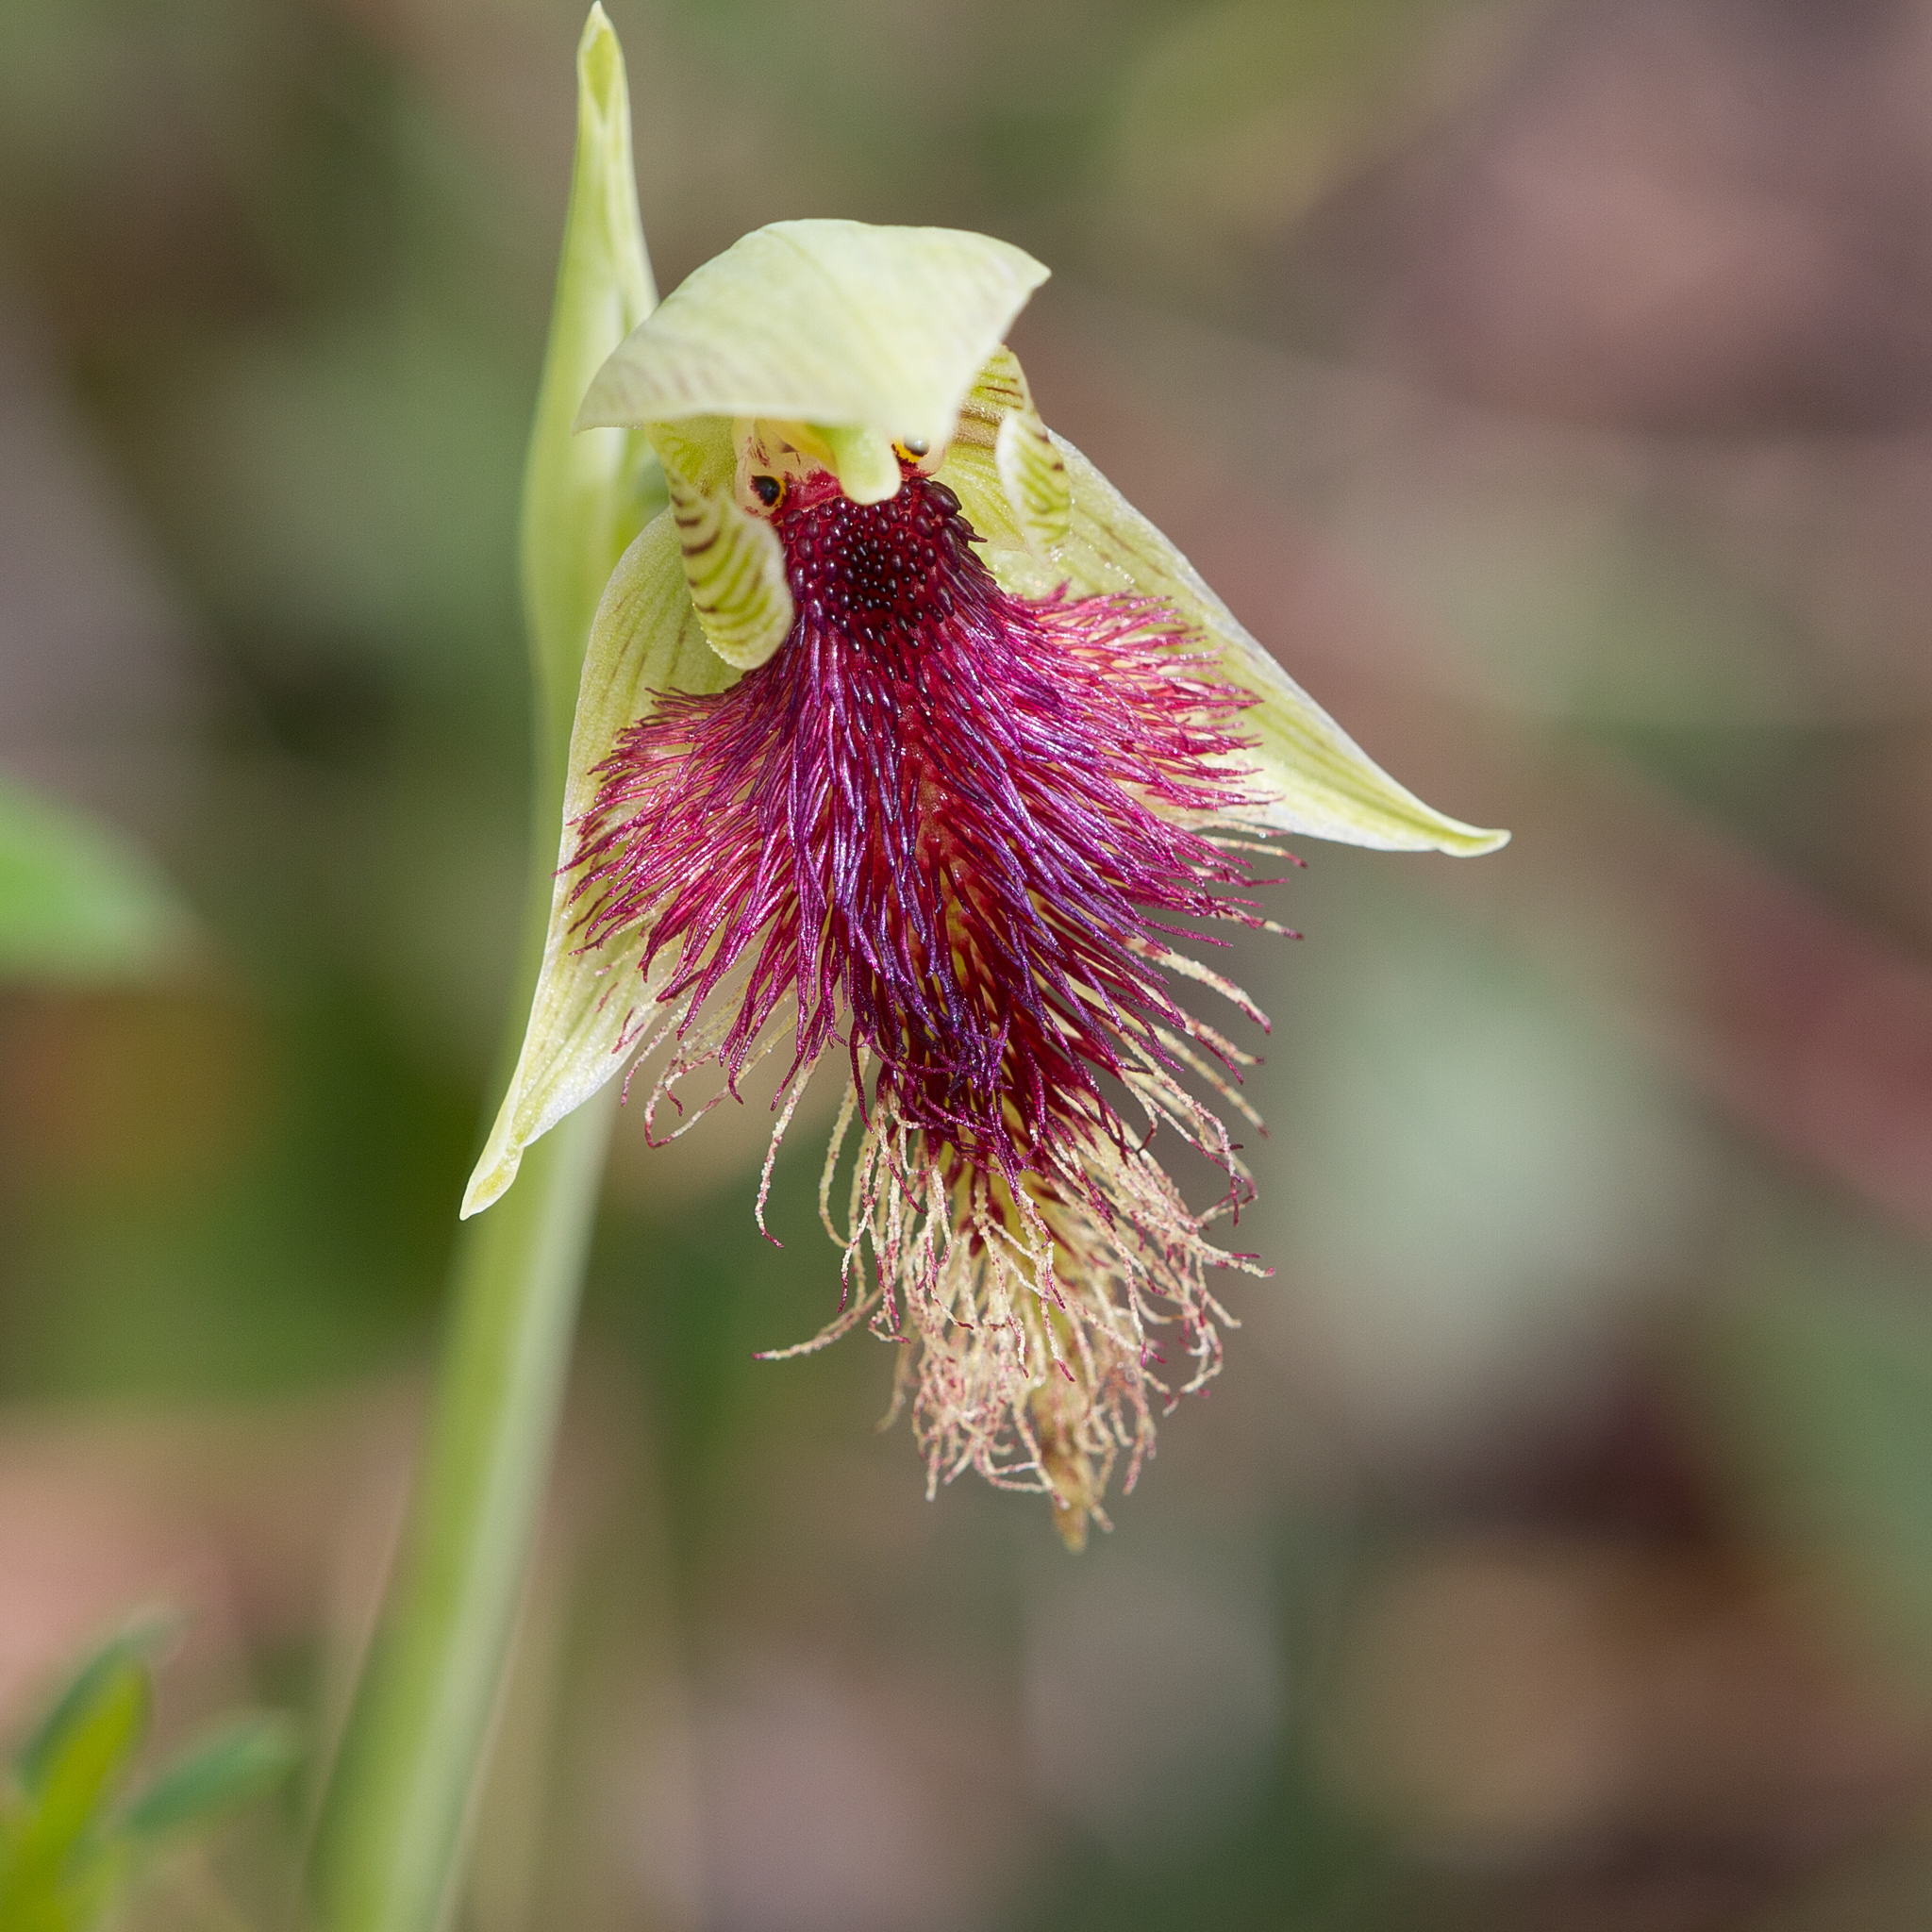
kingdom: Plantae
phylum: Tracheophyta
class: Liliopsida
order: Asparagales
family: Orchidaceae
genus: Calochilus
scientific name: Calochilus robertsonii
